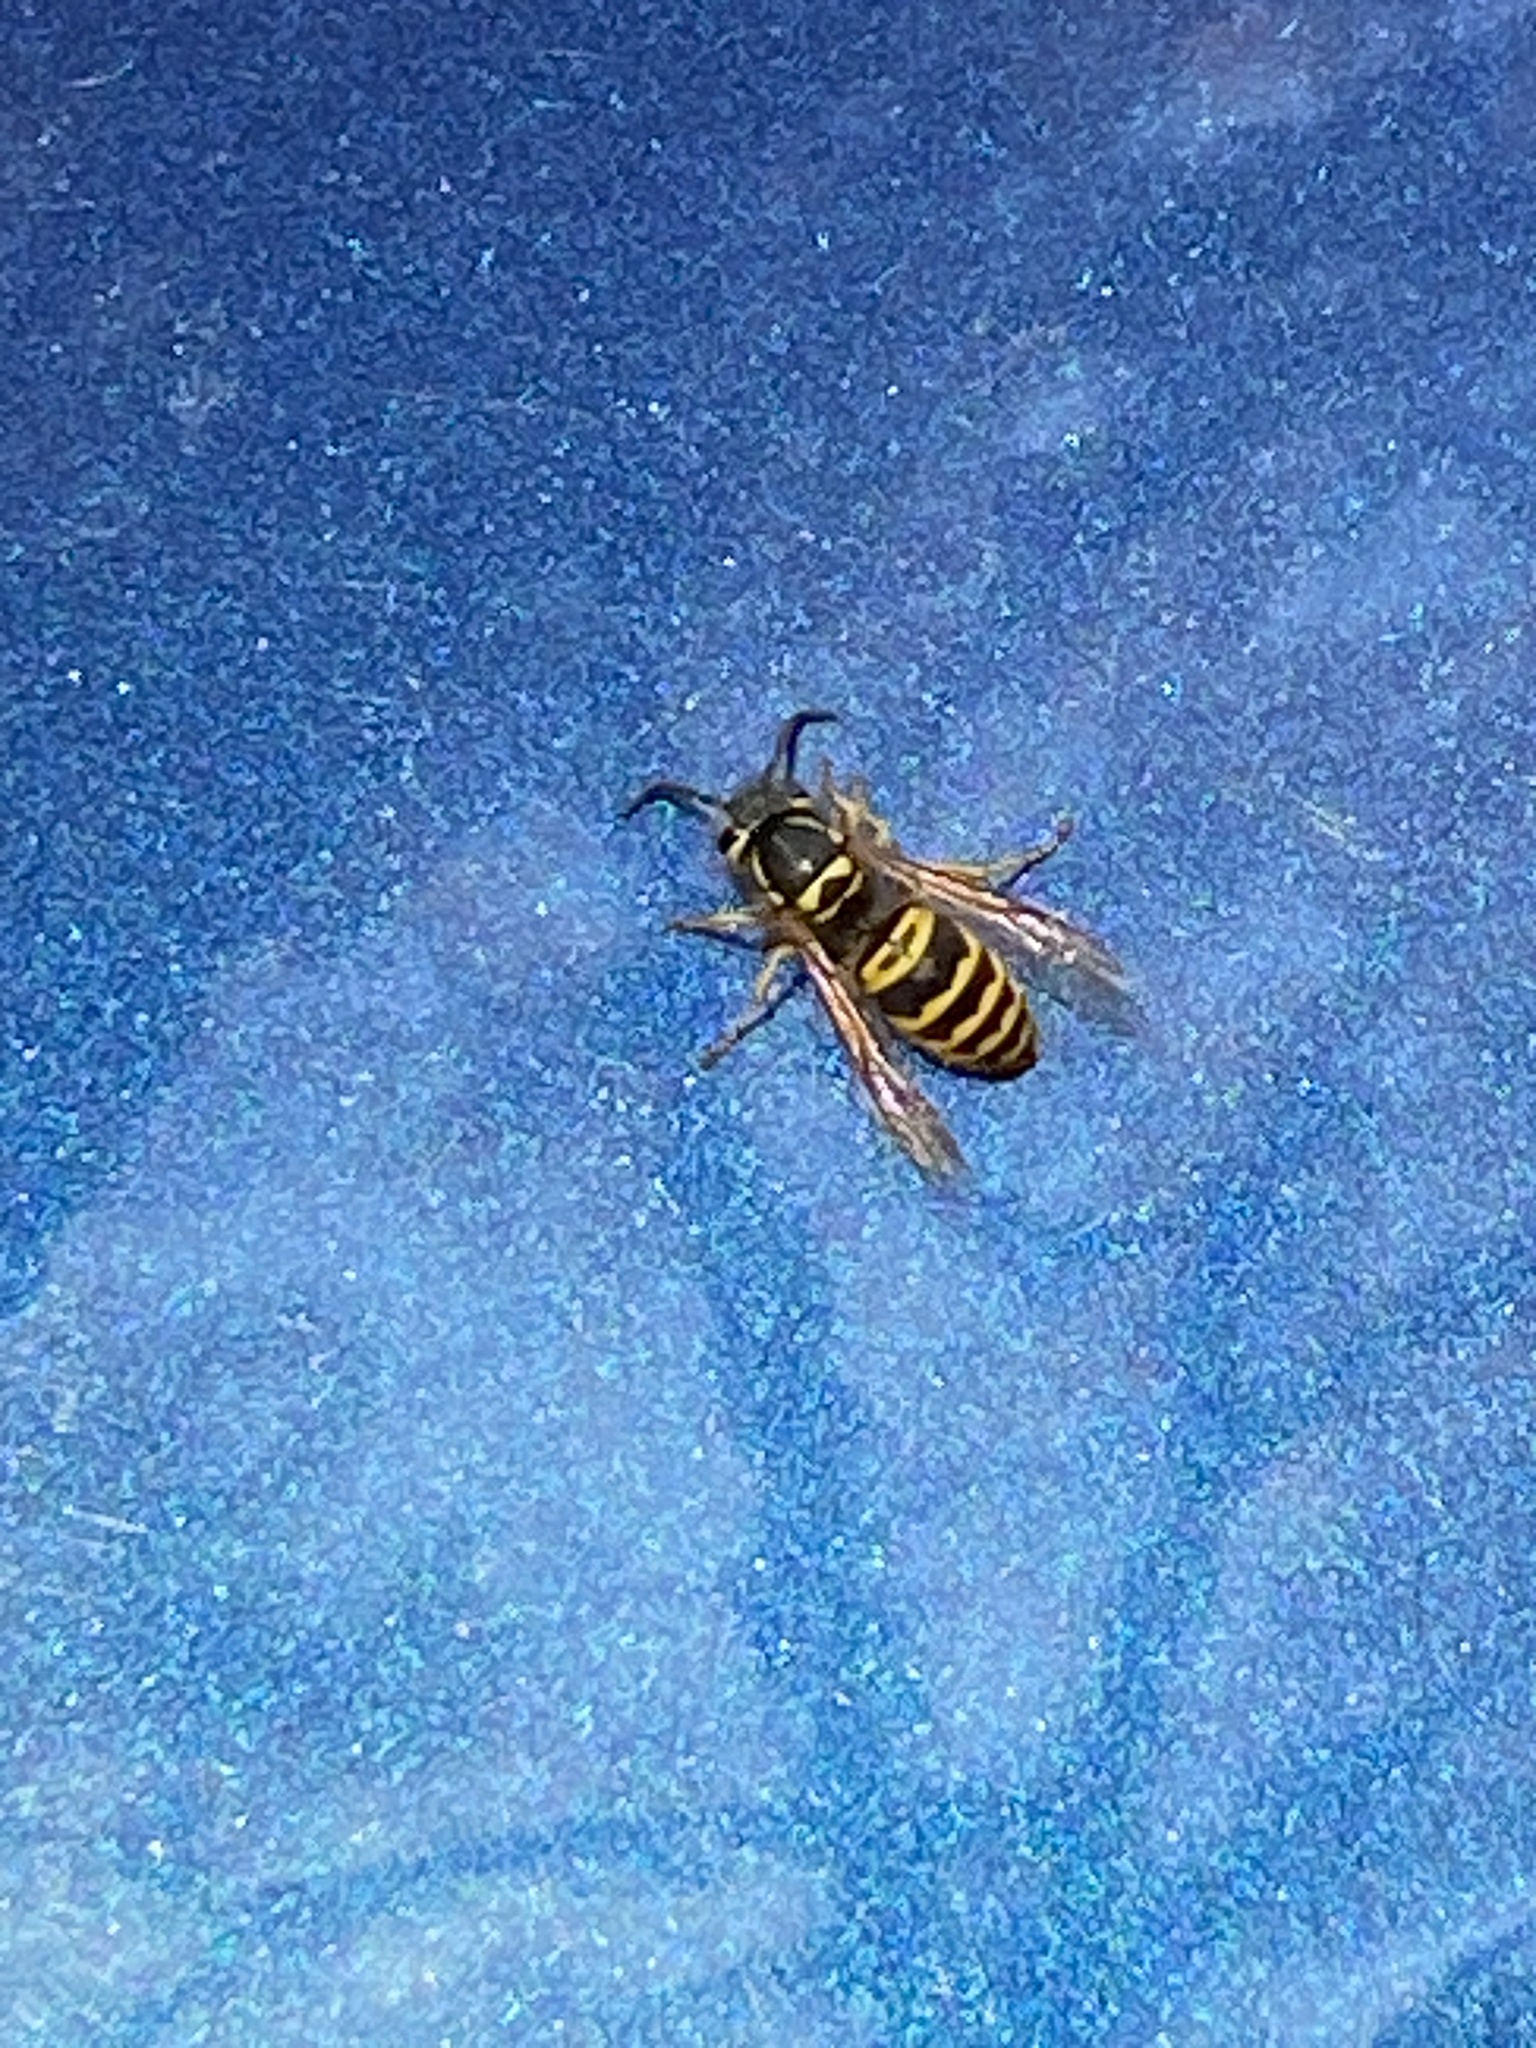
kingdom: Animalia
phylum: Arthropoda
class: Insecta
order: Hymenoptera
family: Vespidae
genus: Vespula
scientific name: Vespula maculifrons
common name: Eastern yellowjacket
